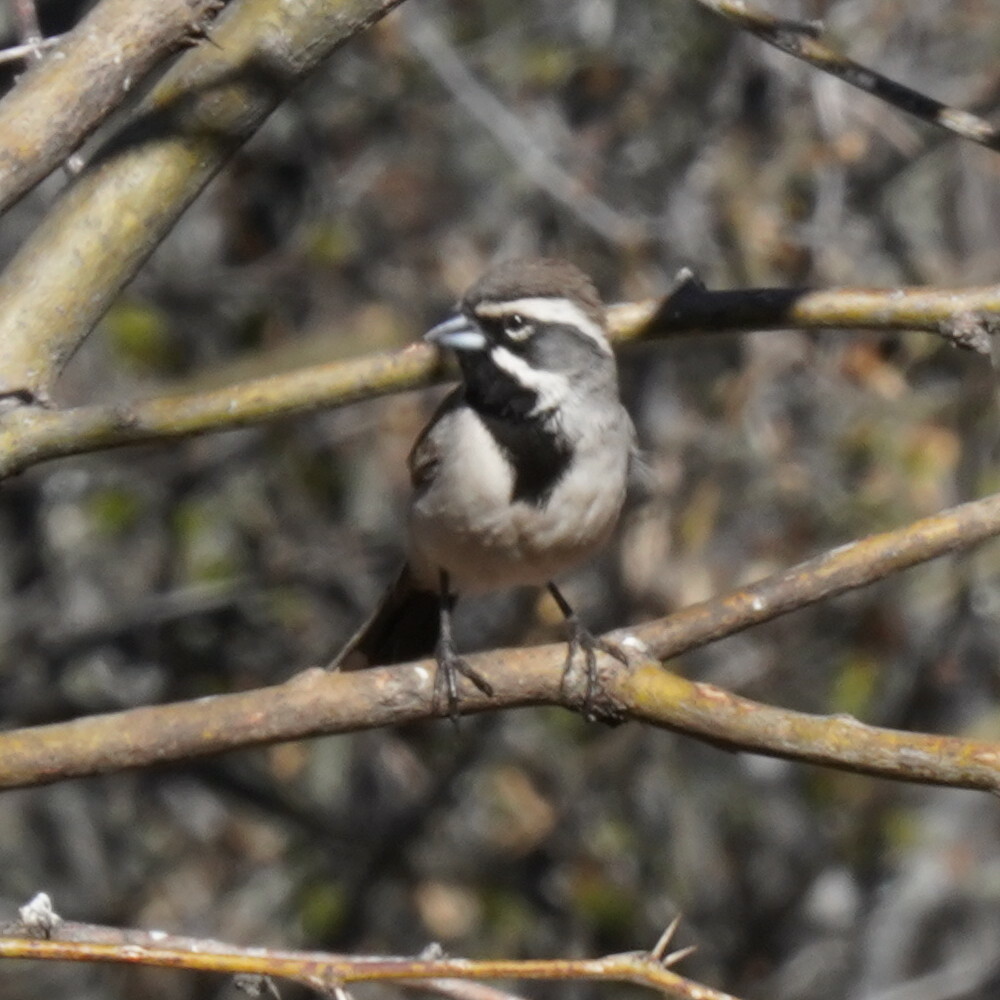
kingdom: Animalia
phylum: Chordata
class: Aves
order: Passeriformes
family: Passerellidae
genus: Amphispiza
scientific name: Amphispiza bilineata
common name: Black-throated sparrow
